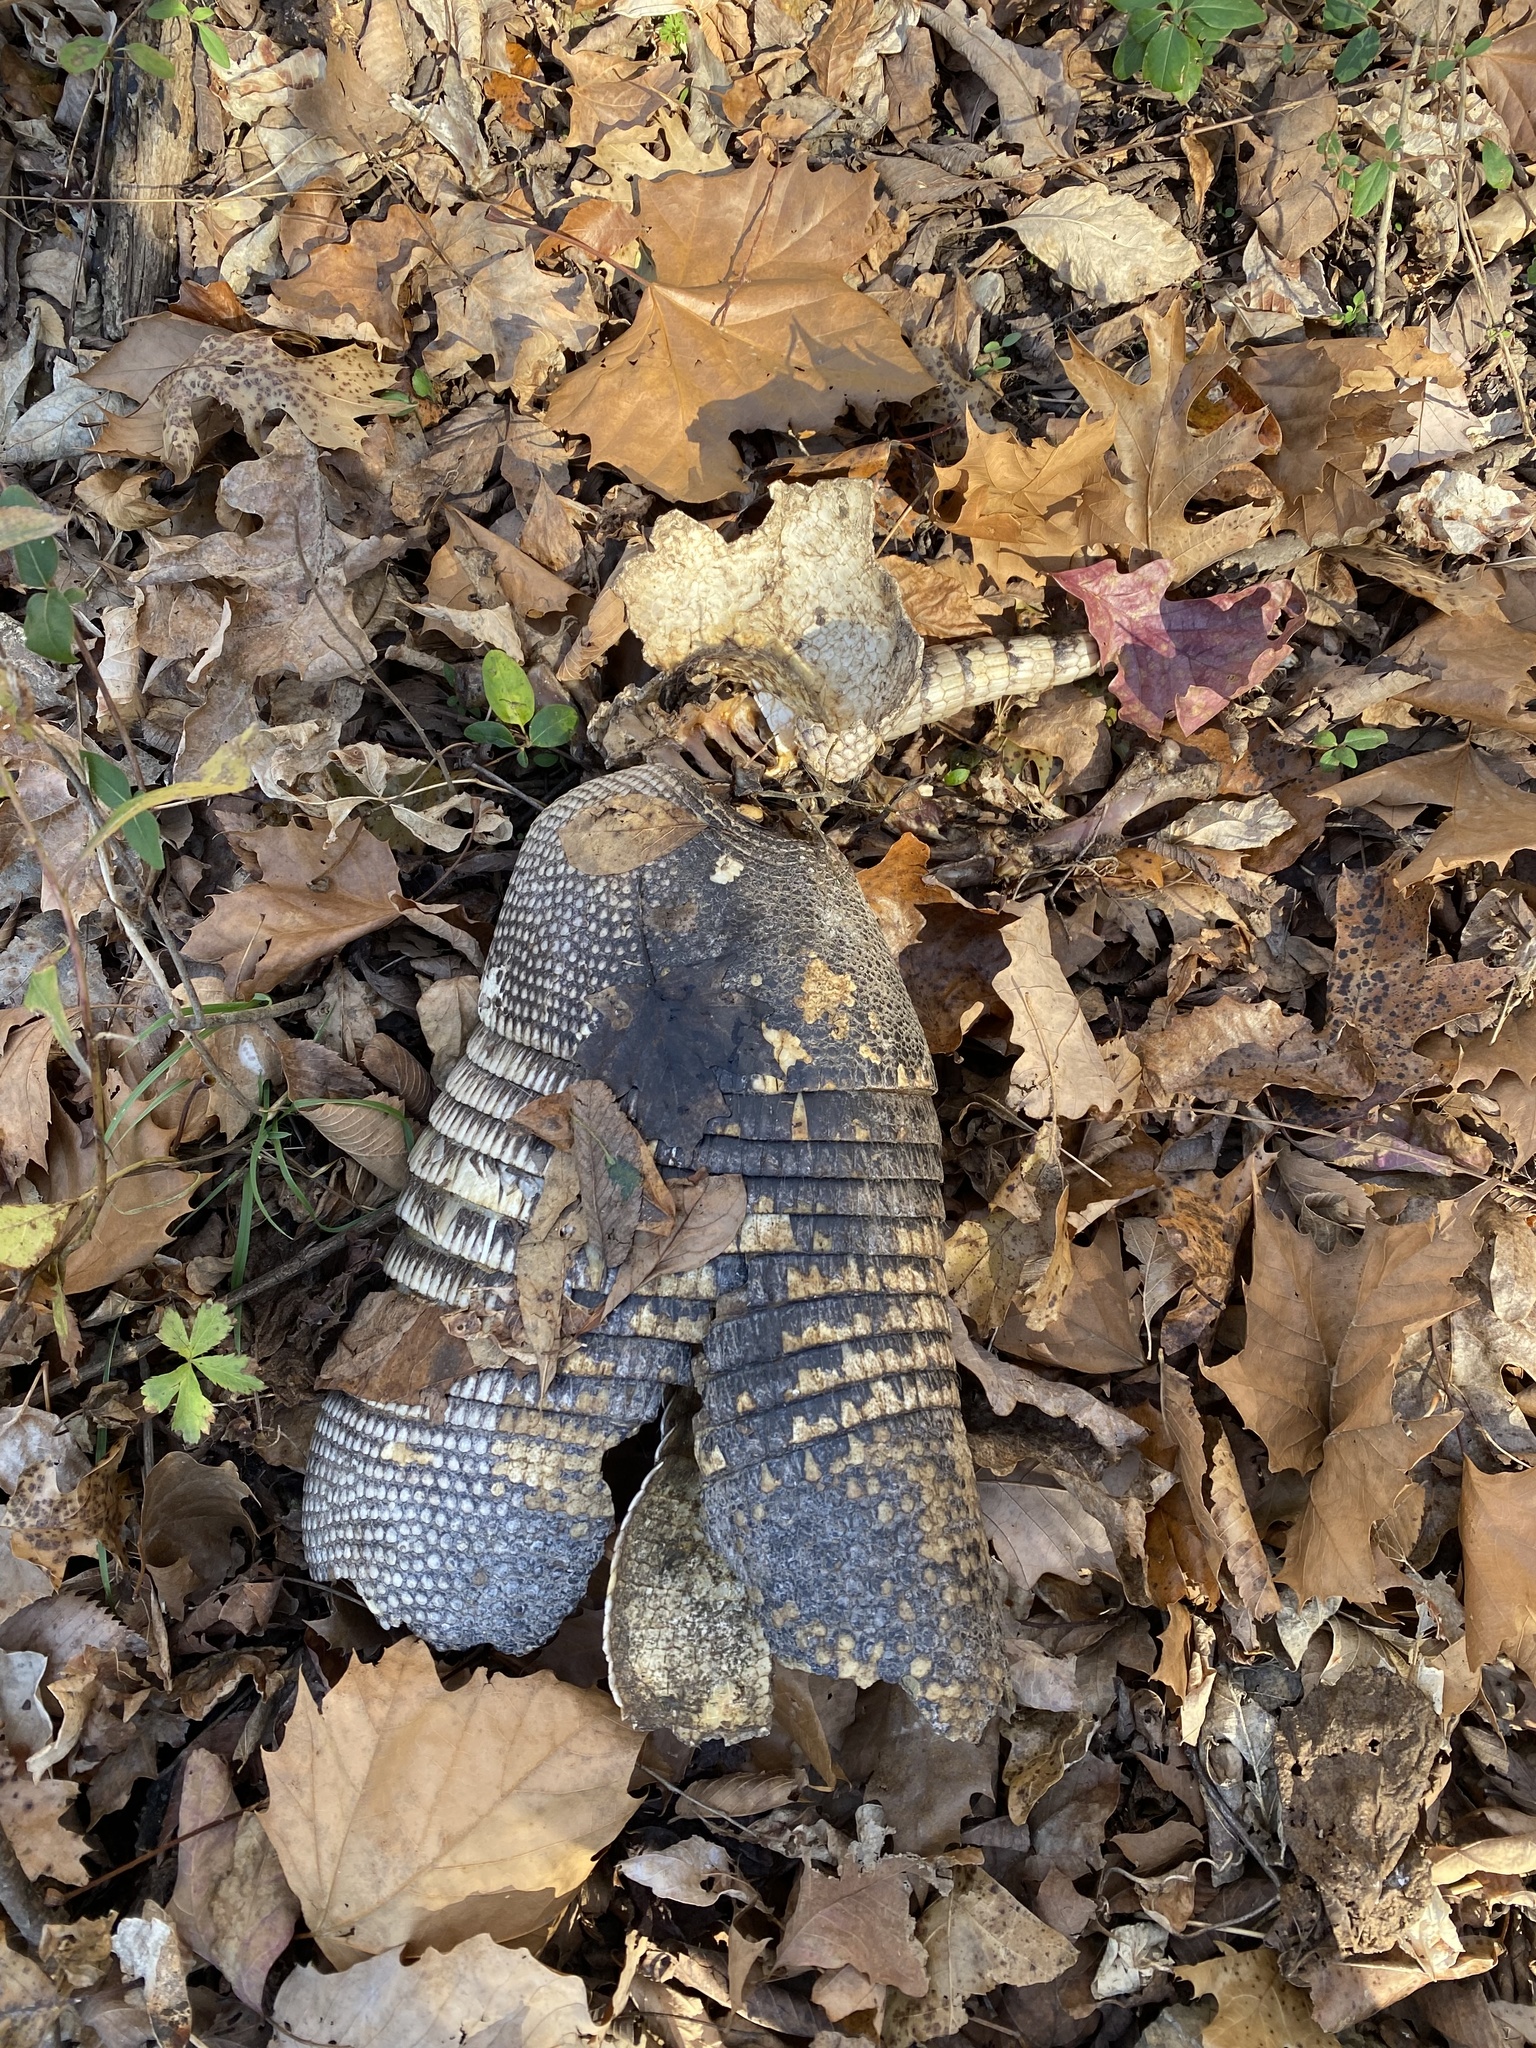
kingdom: Animalia
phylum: Chordata
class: Mammalia
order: Cingulata
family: Dasypodidae
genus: Dasypus
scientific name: Dasypus novemcinctus
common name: Nine-banded armadillo
